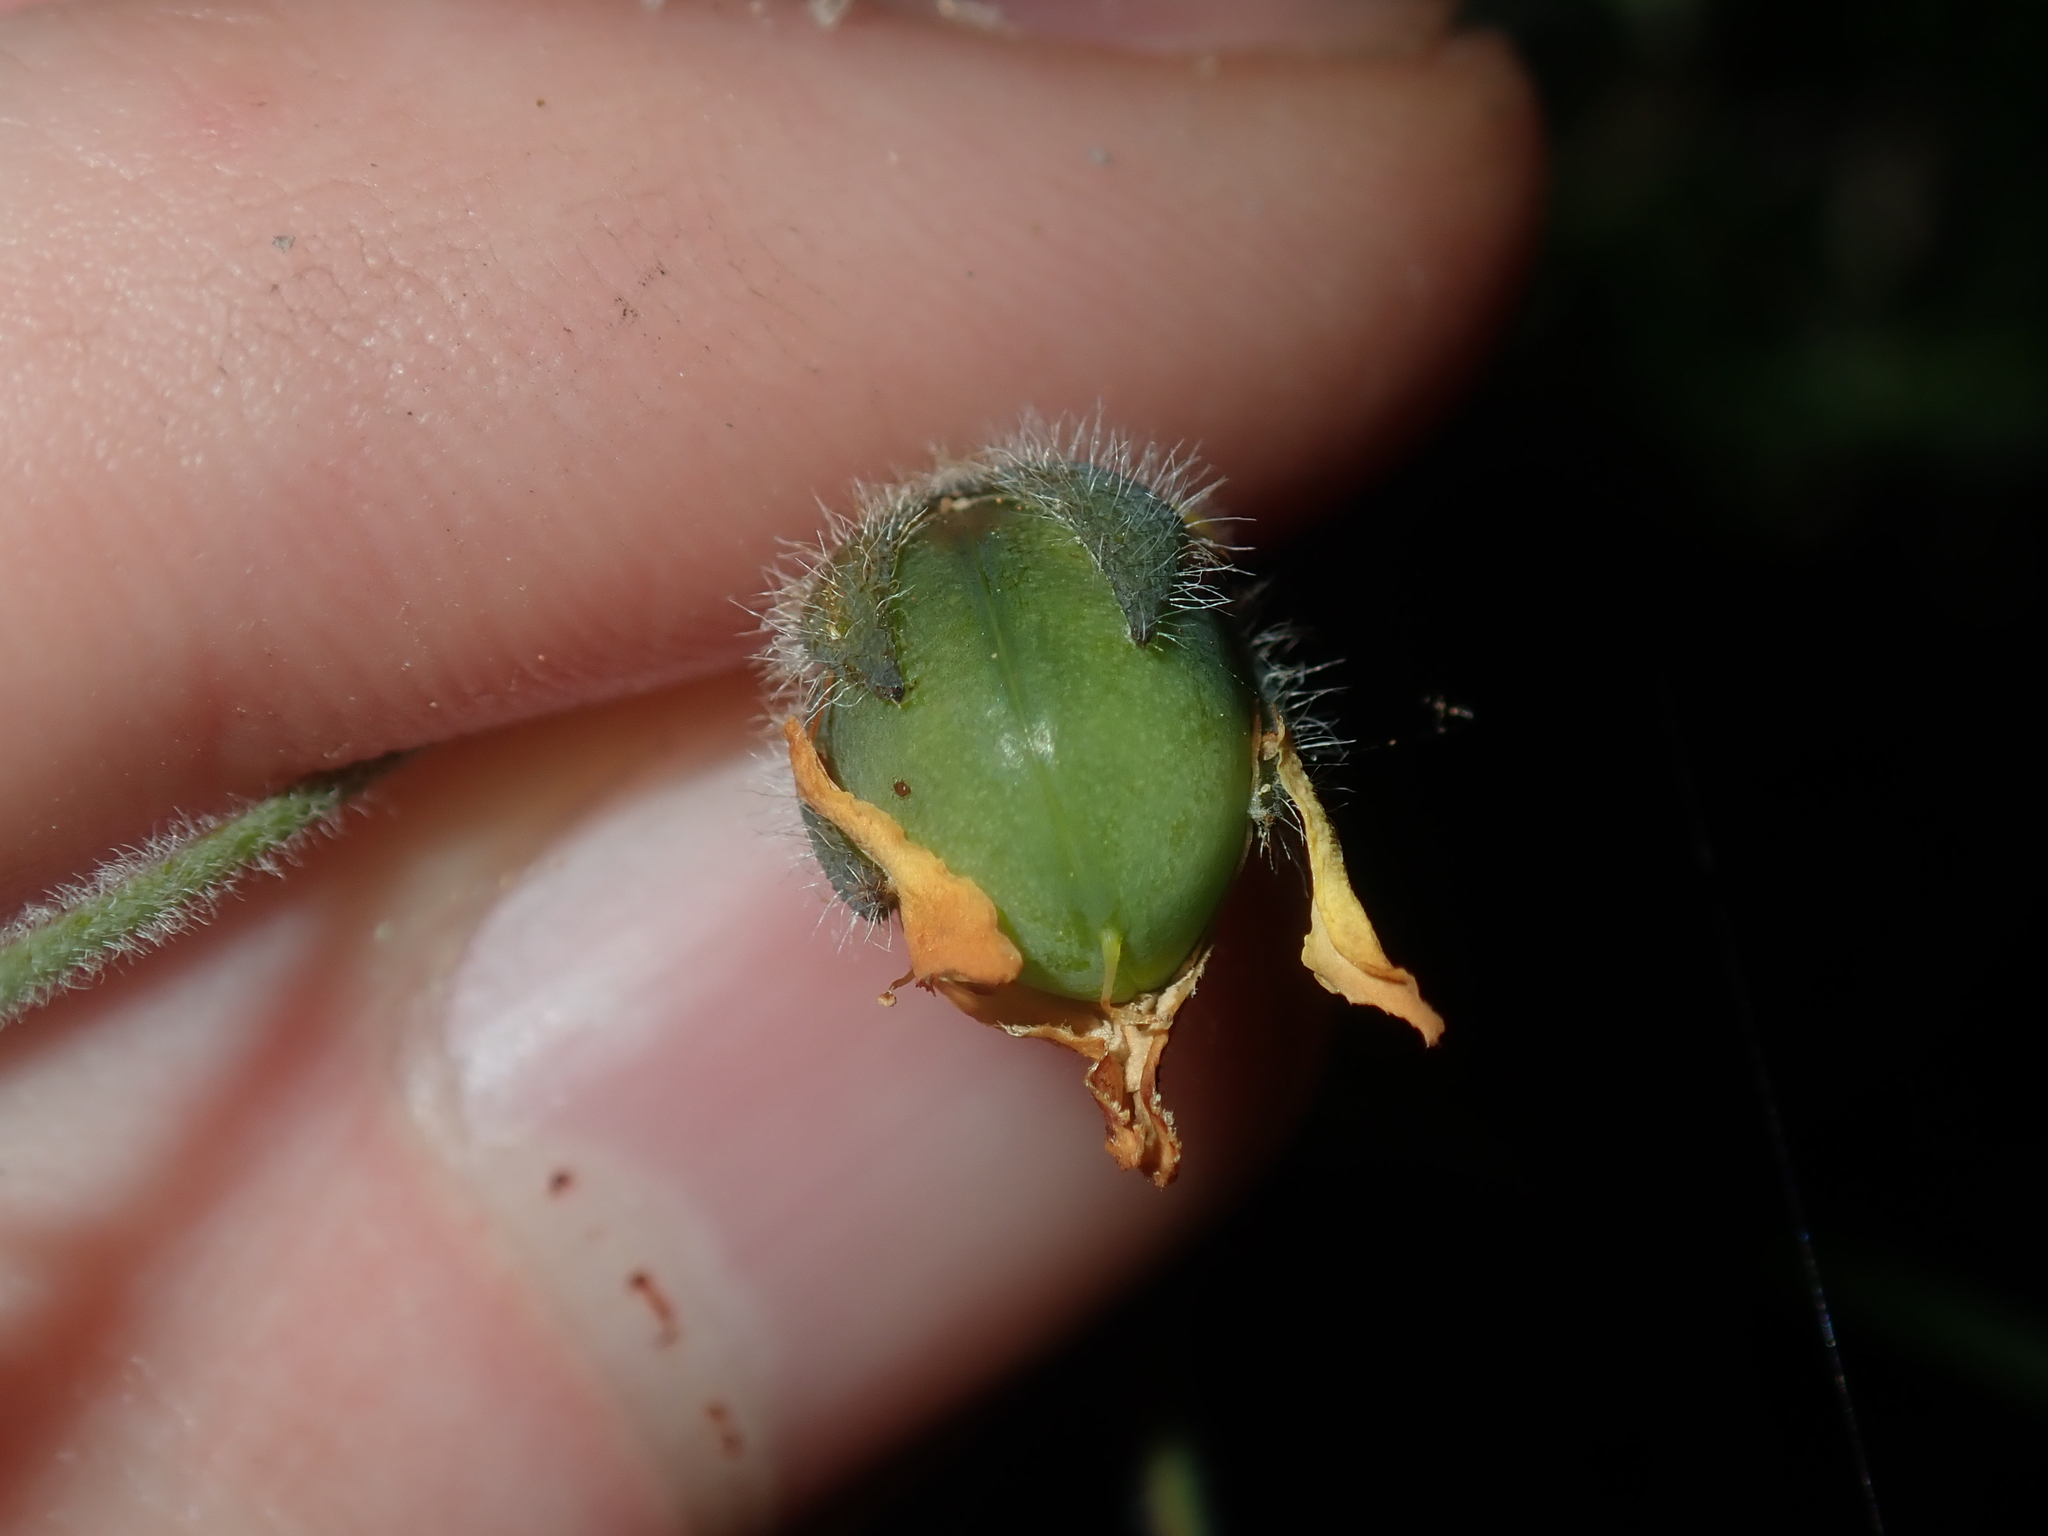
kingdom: Plantae
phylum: Tracheophyta
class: Magnoliopsida
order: Fabales
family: Fabaceae
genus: Gompholobium
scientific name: Gompholobium tomentosum
